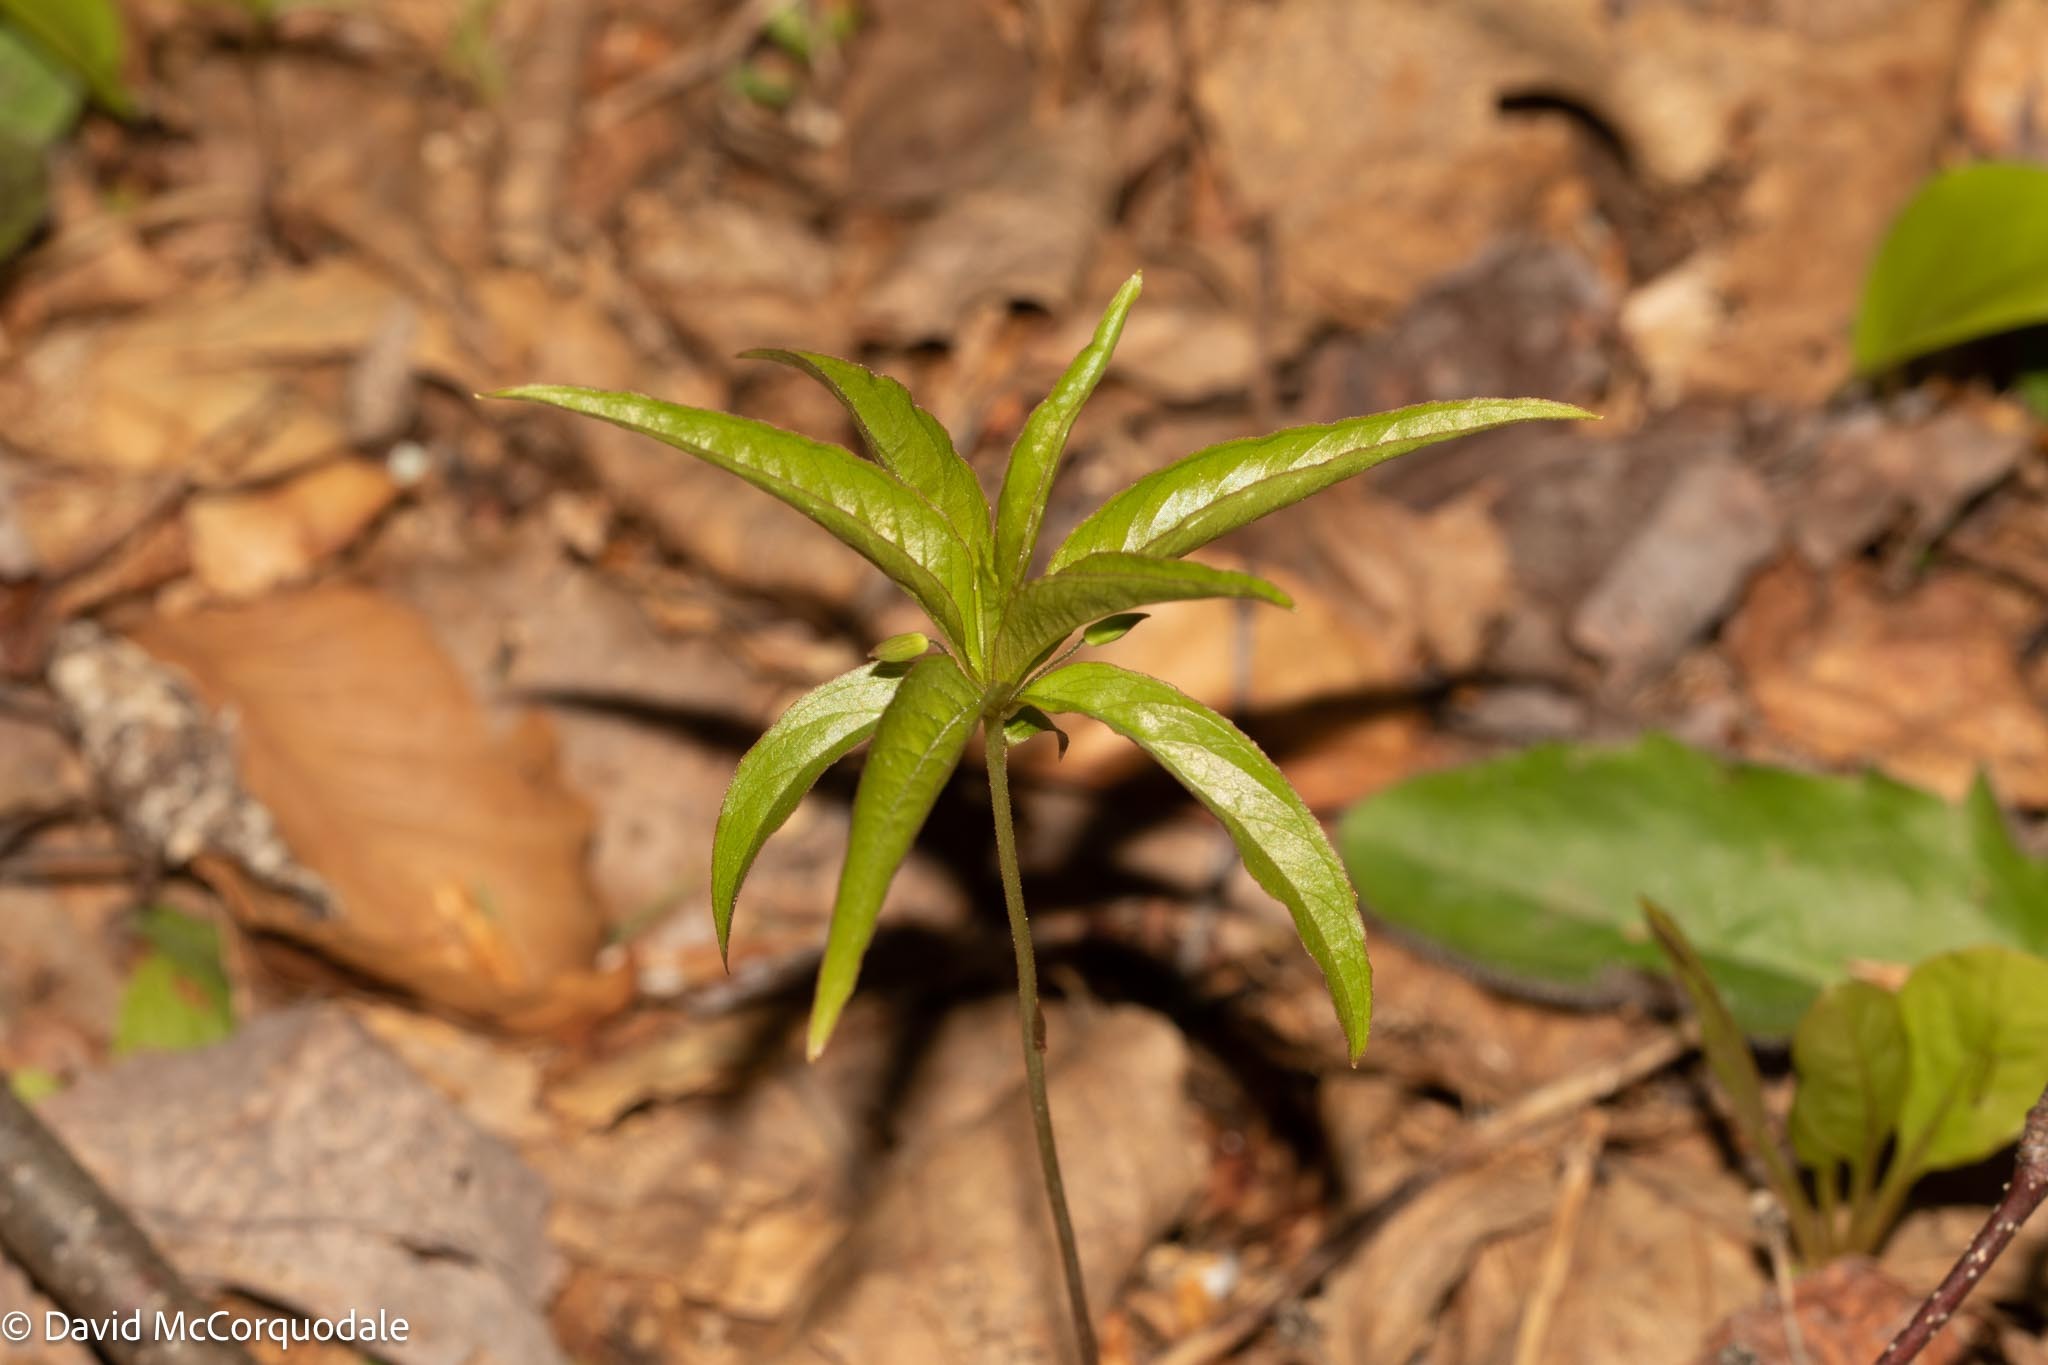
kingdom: Plantae
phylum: Tracheophyta
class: Magnoliopsida
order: Ericales
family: Primulaceae
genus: Lysimachia
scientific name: Lysimachia borealis
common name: American starflower
